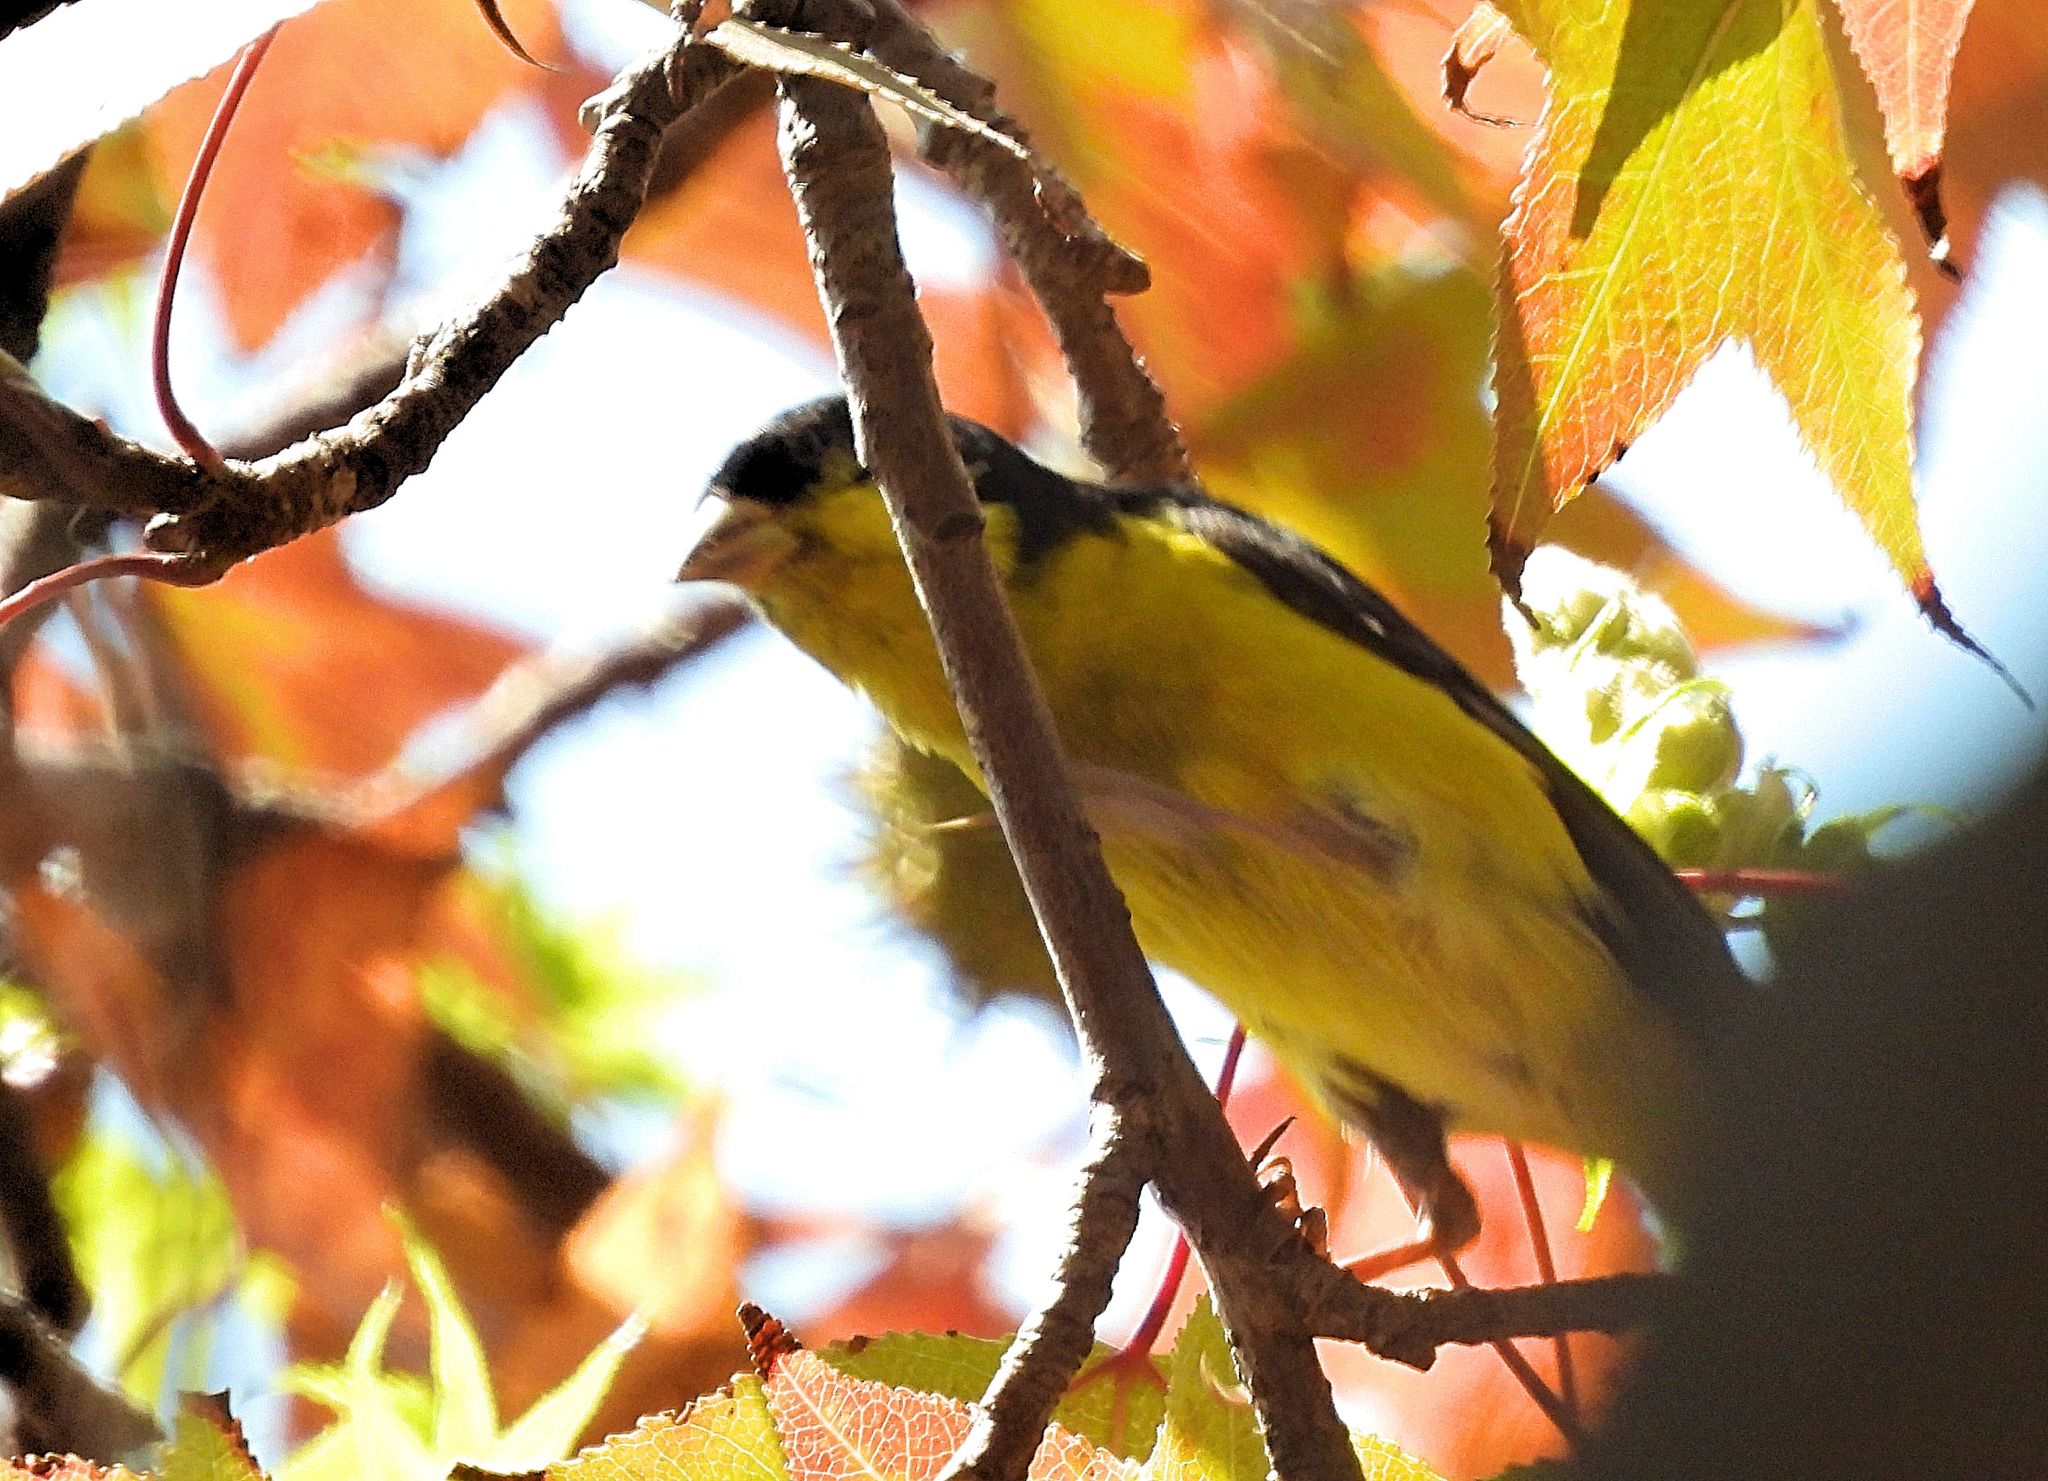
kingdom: Animalia
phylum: Chordata
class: Aves
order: Passeriformes
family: Fringillidae
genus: Spinus
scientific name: Spinus psaltria
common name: Lesser goldfinch
